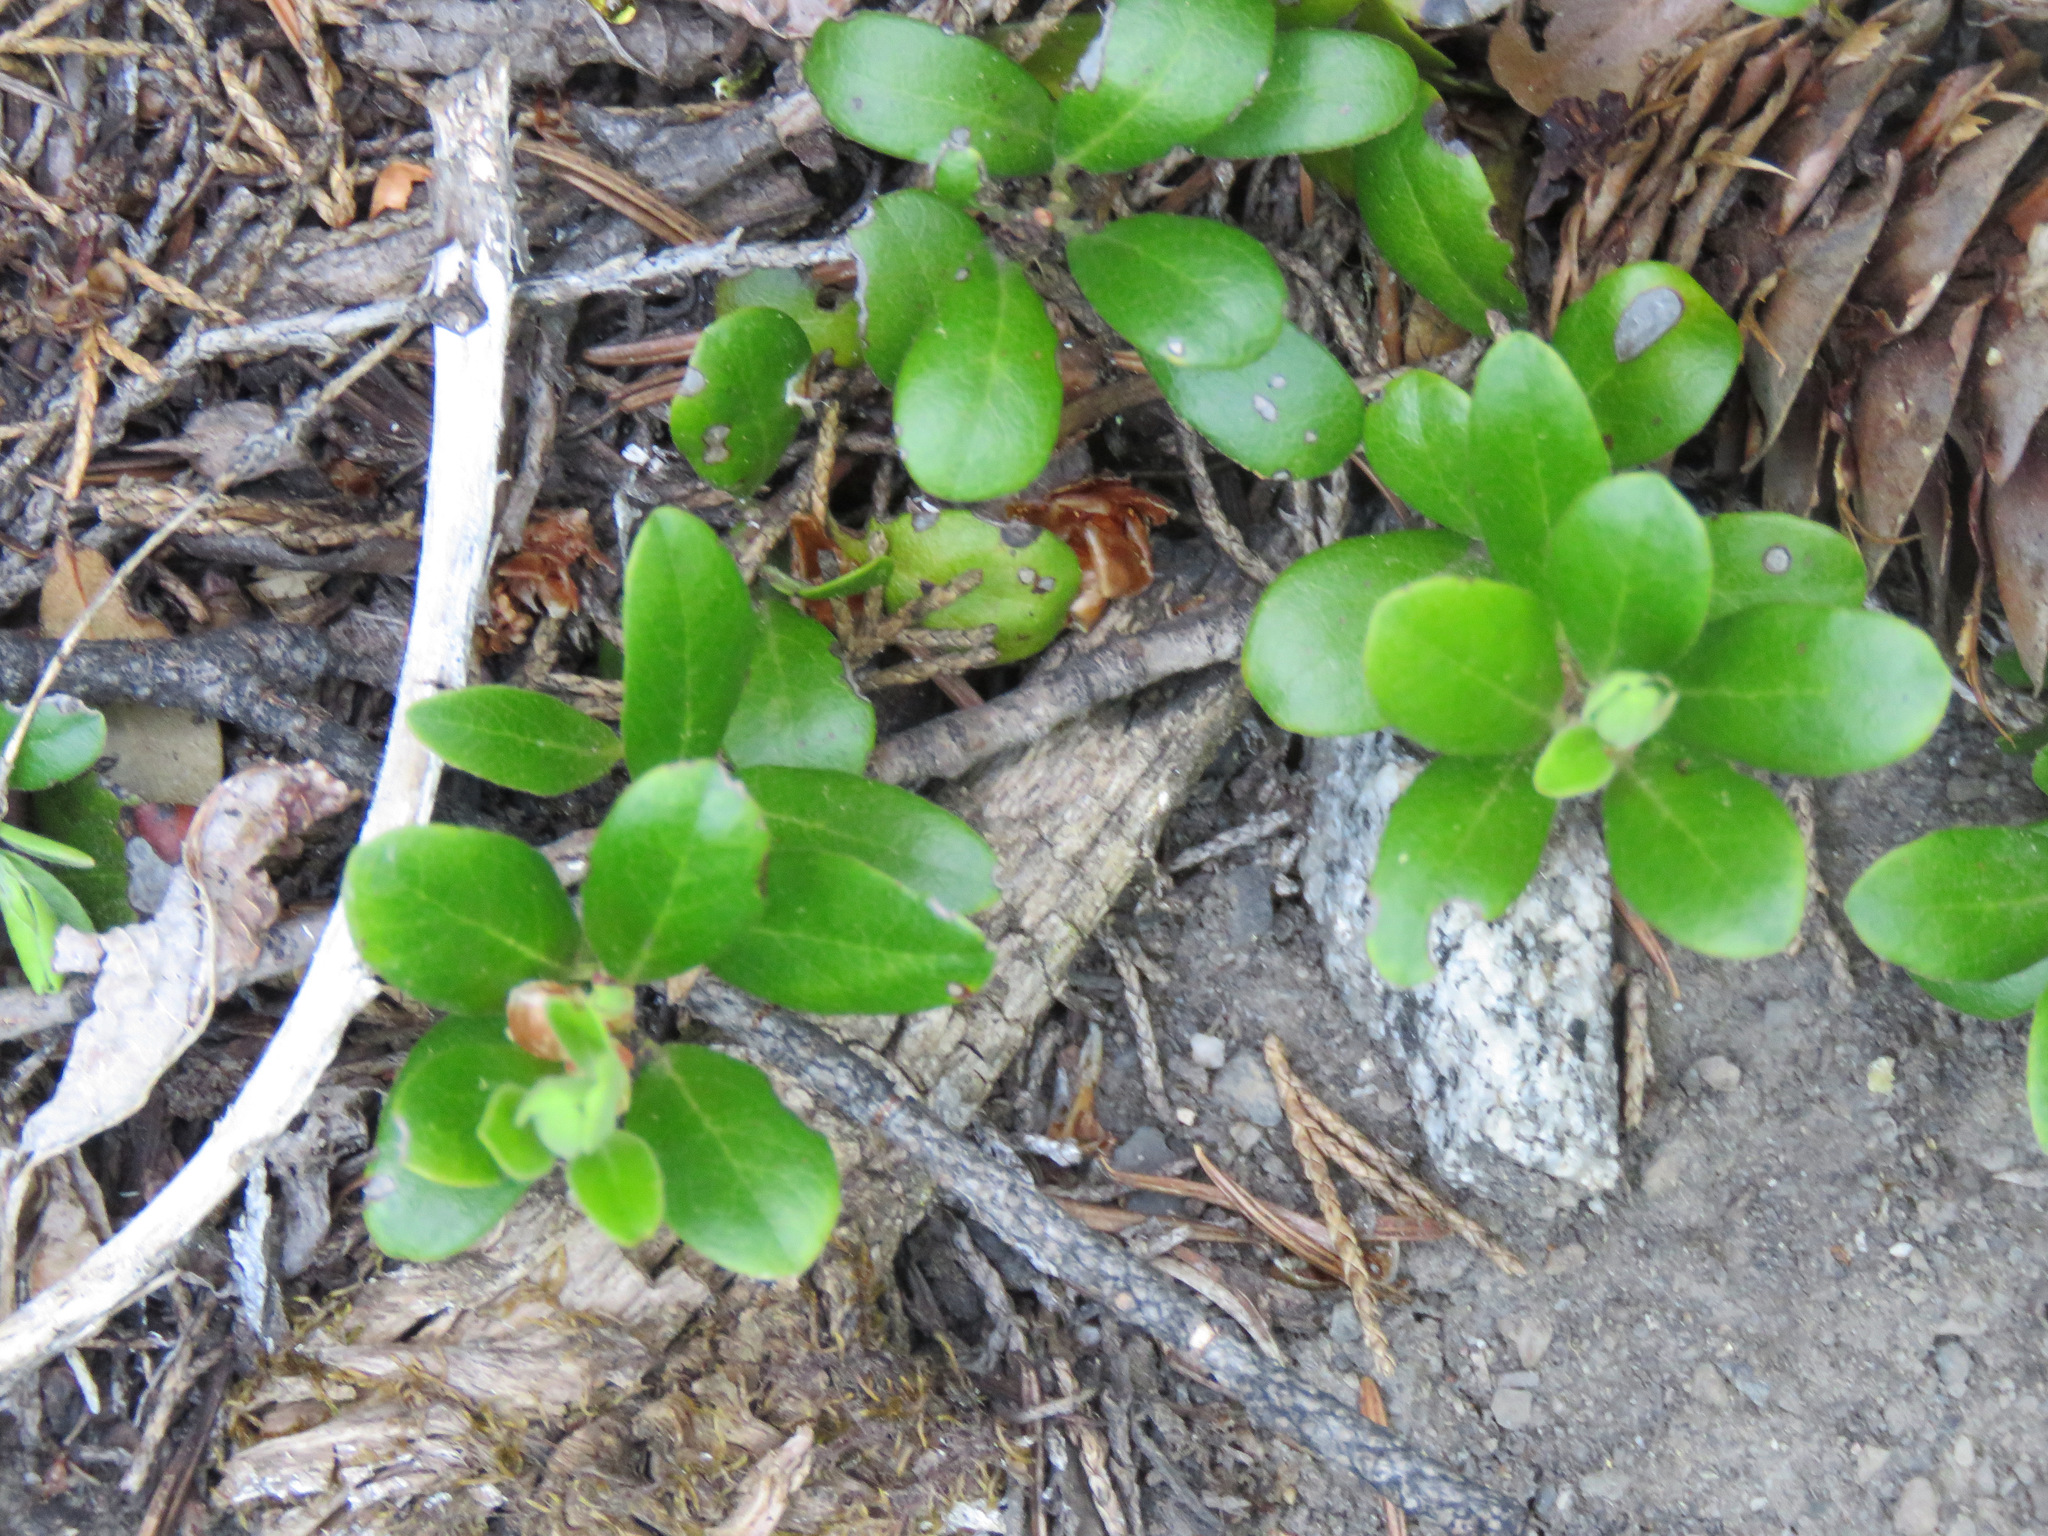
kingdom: Plantae
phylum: Tracheophyta
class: Magnoliopsida
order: Ericales
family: Ericaceae
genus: Arctostaphylos
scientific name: Arctostaphylos uva-ursi
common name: Bearberry
